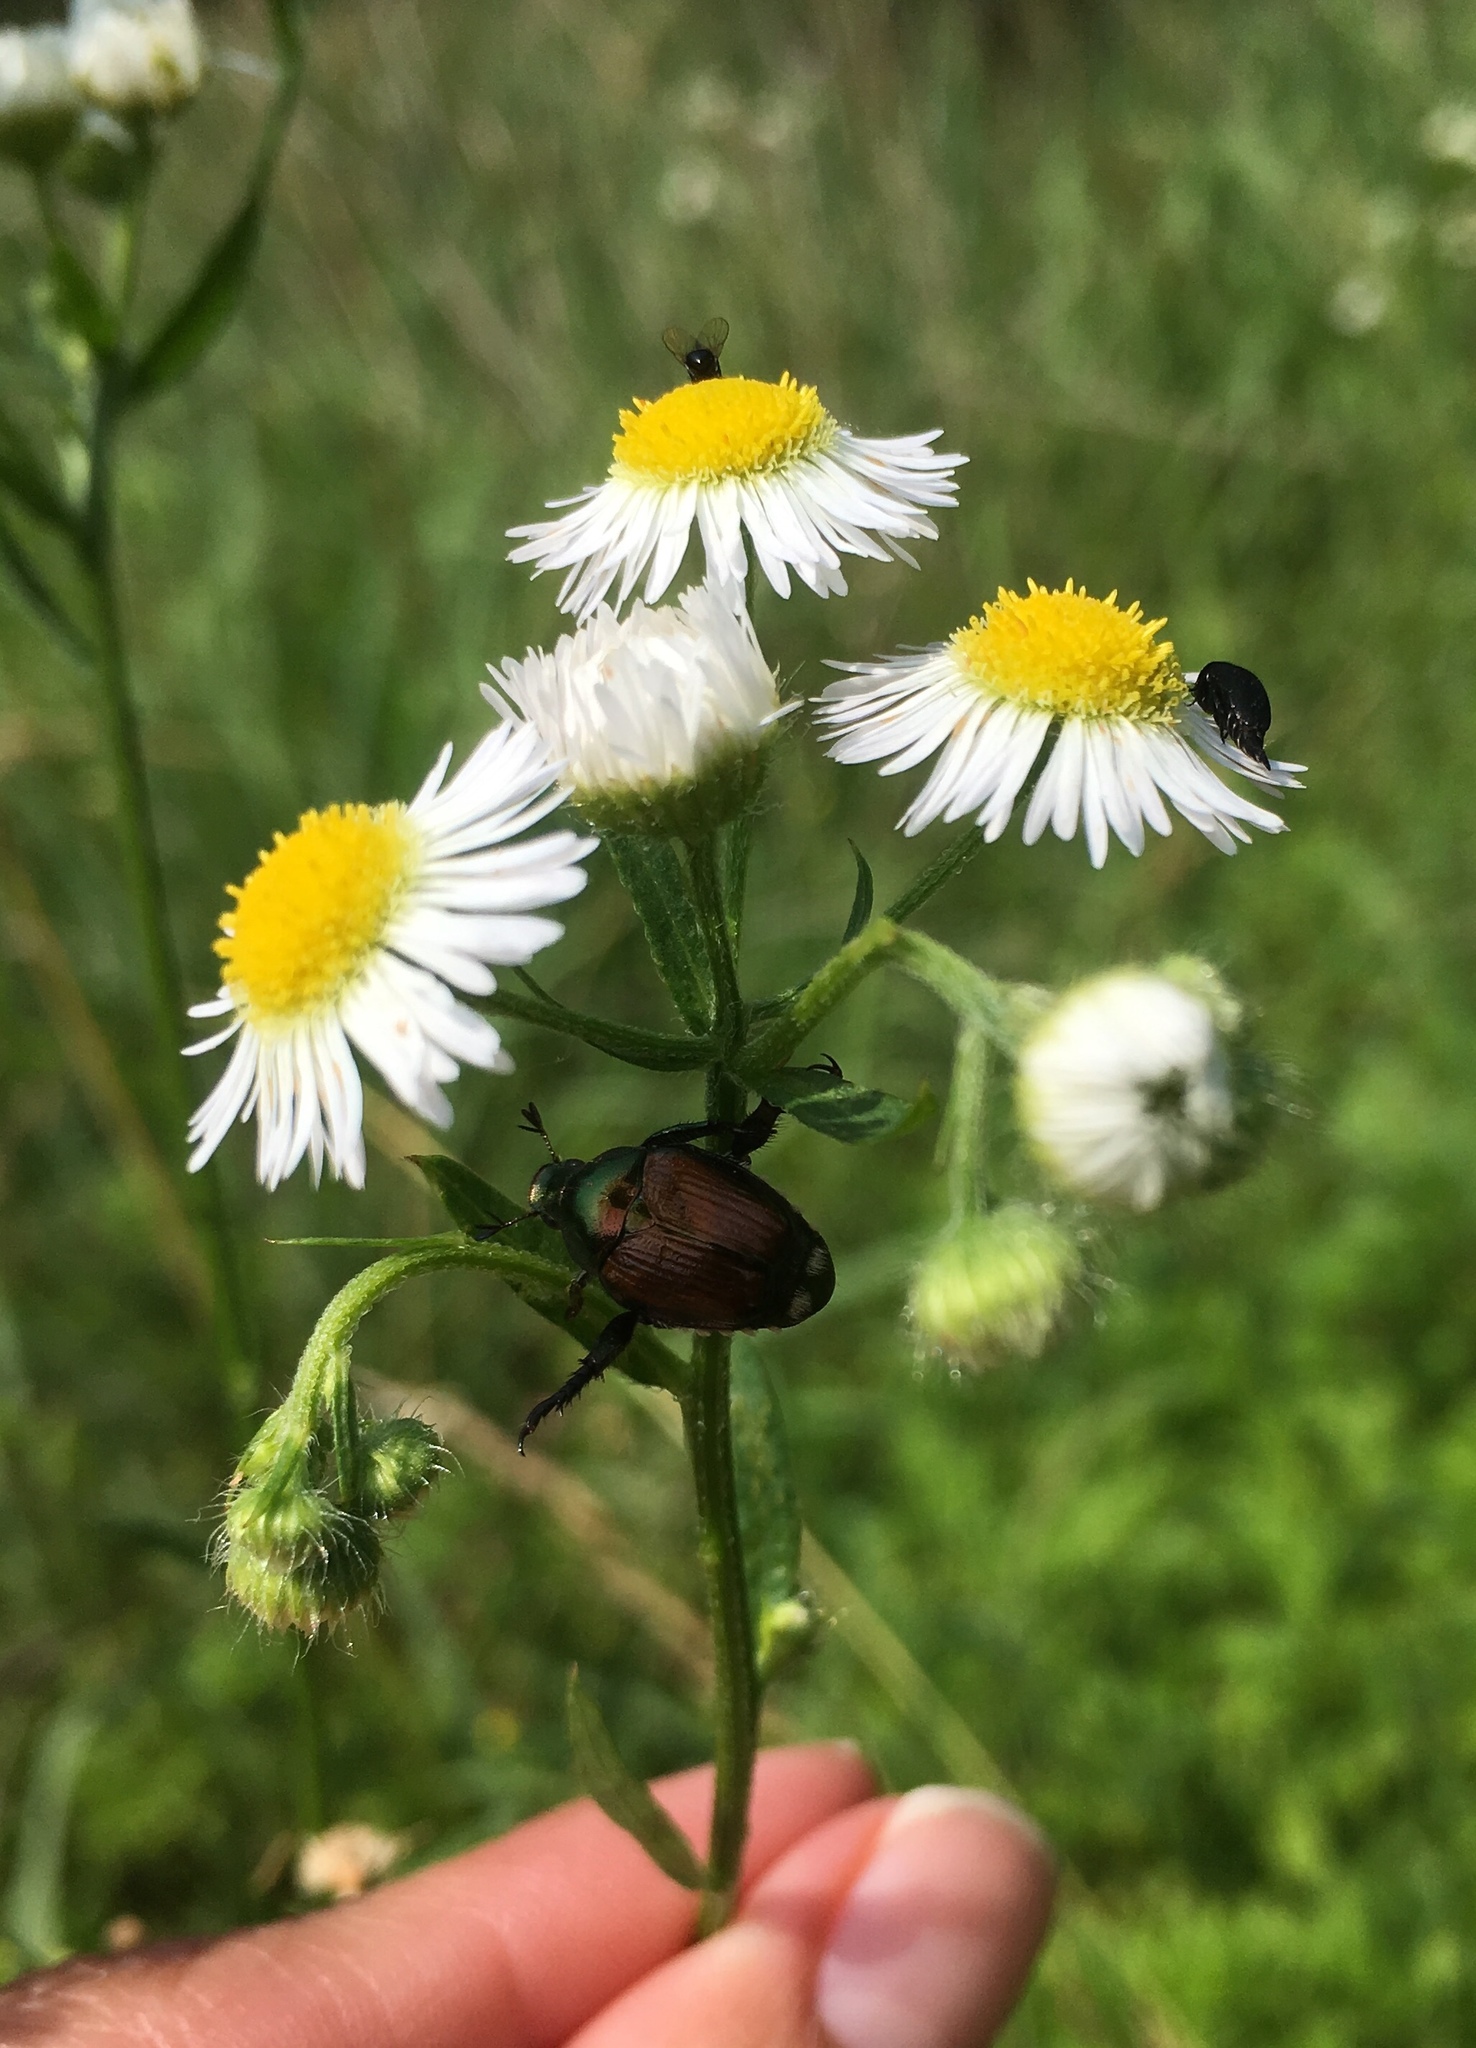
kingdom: Animalia
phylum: Arthropoda
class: Insecta
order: Coleoptera
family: Scarabaeidae
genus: Popillia
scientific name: Popillia japonica
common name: Japanese beetle
